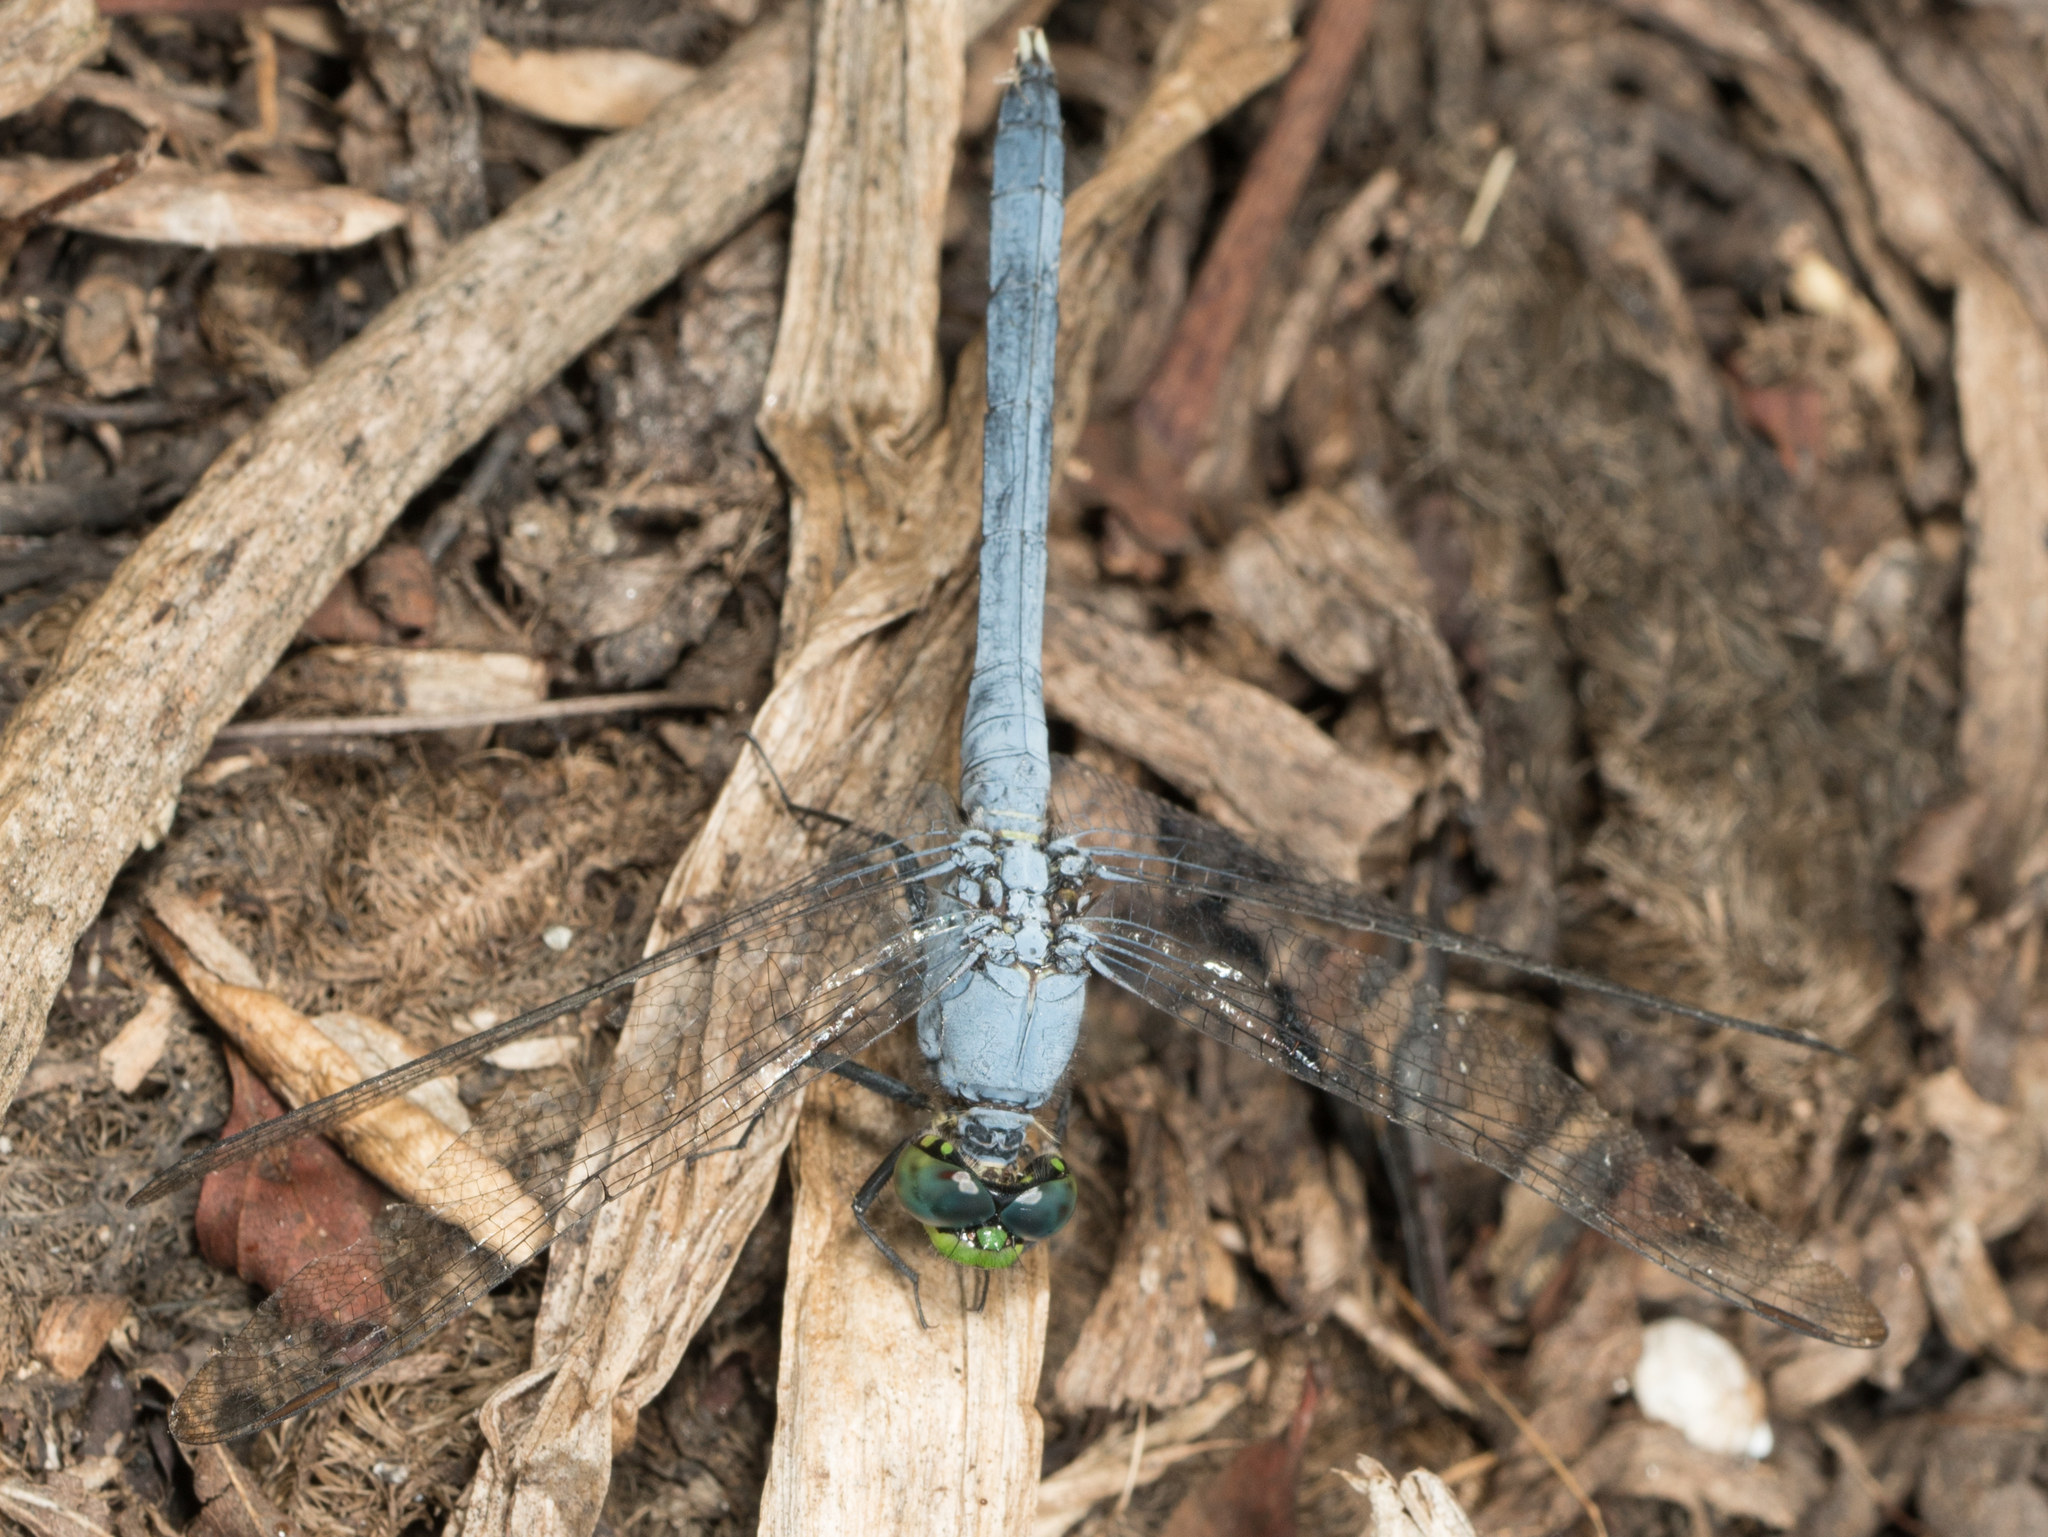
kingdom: Animalia
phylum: Arthropoda
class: Insecta
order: Odonata
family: Libellulidae
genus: Erythemis
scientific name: Erythemis simplicicollis
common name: Eastern pondhawk
